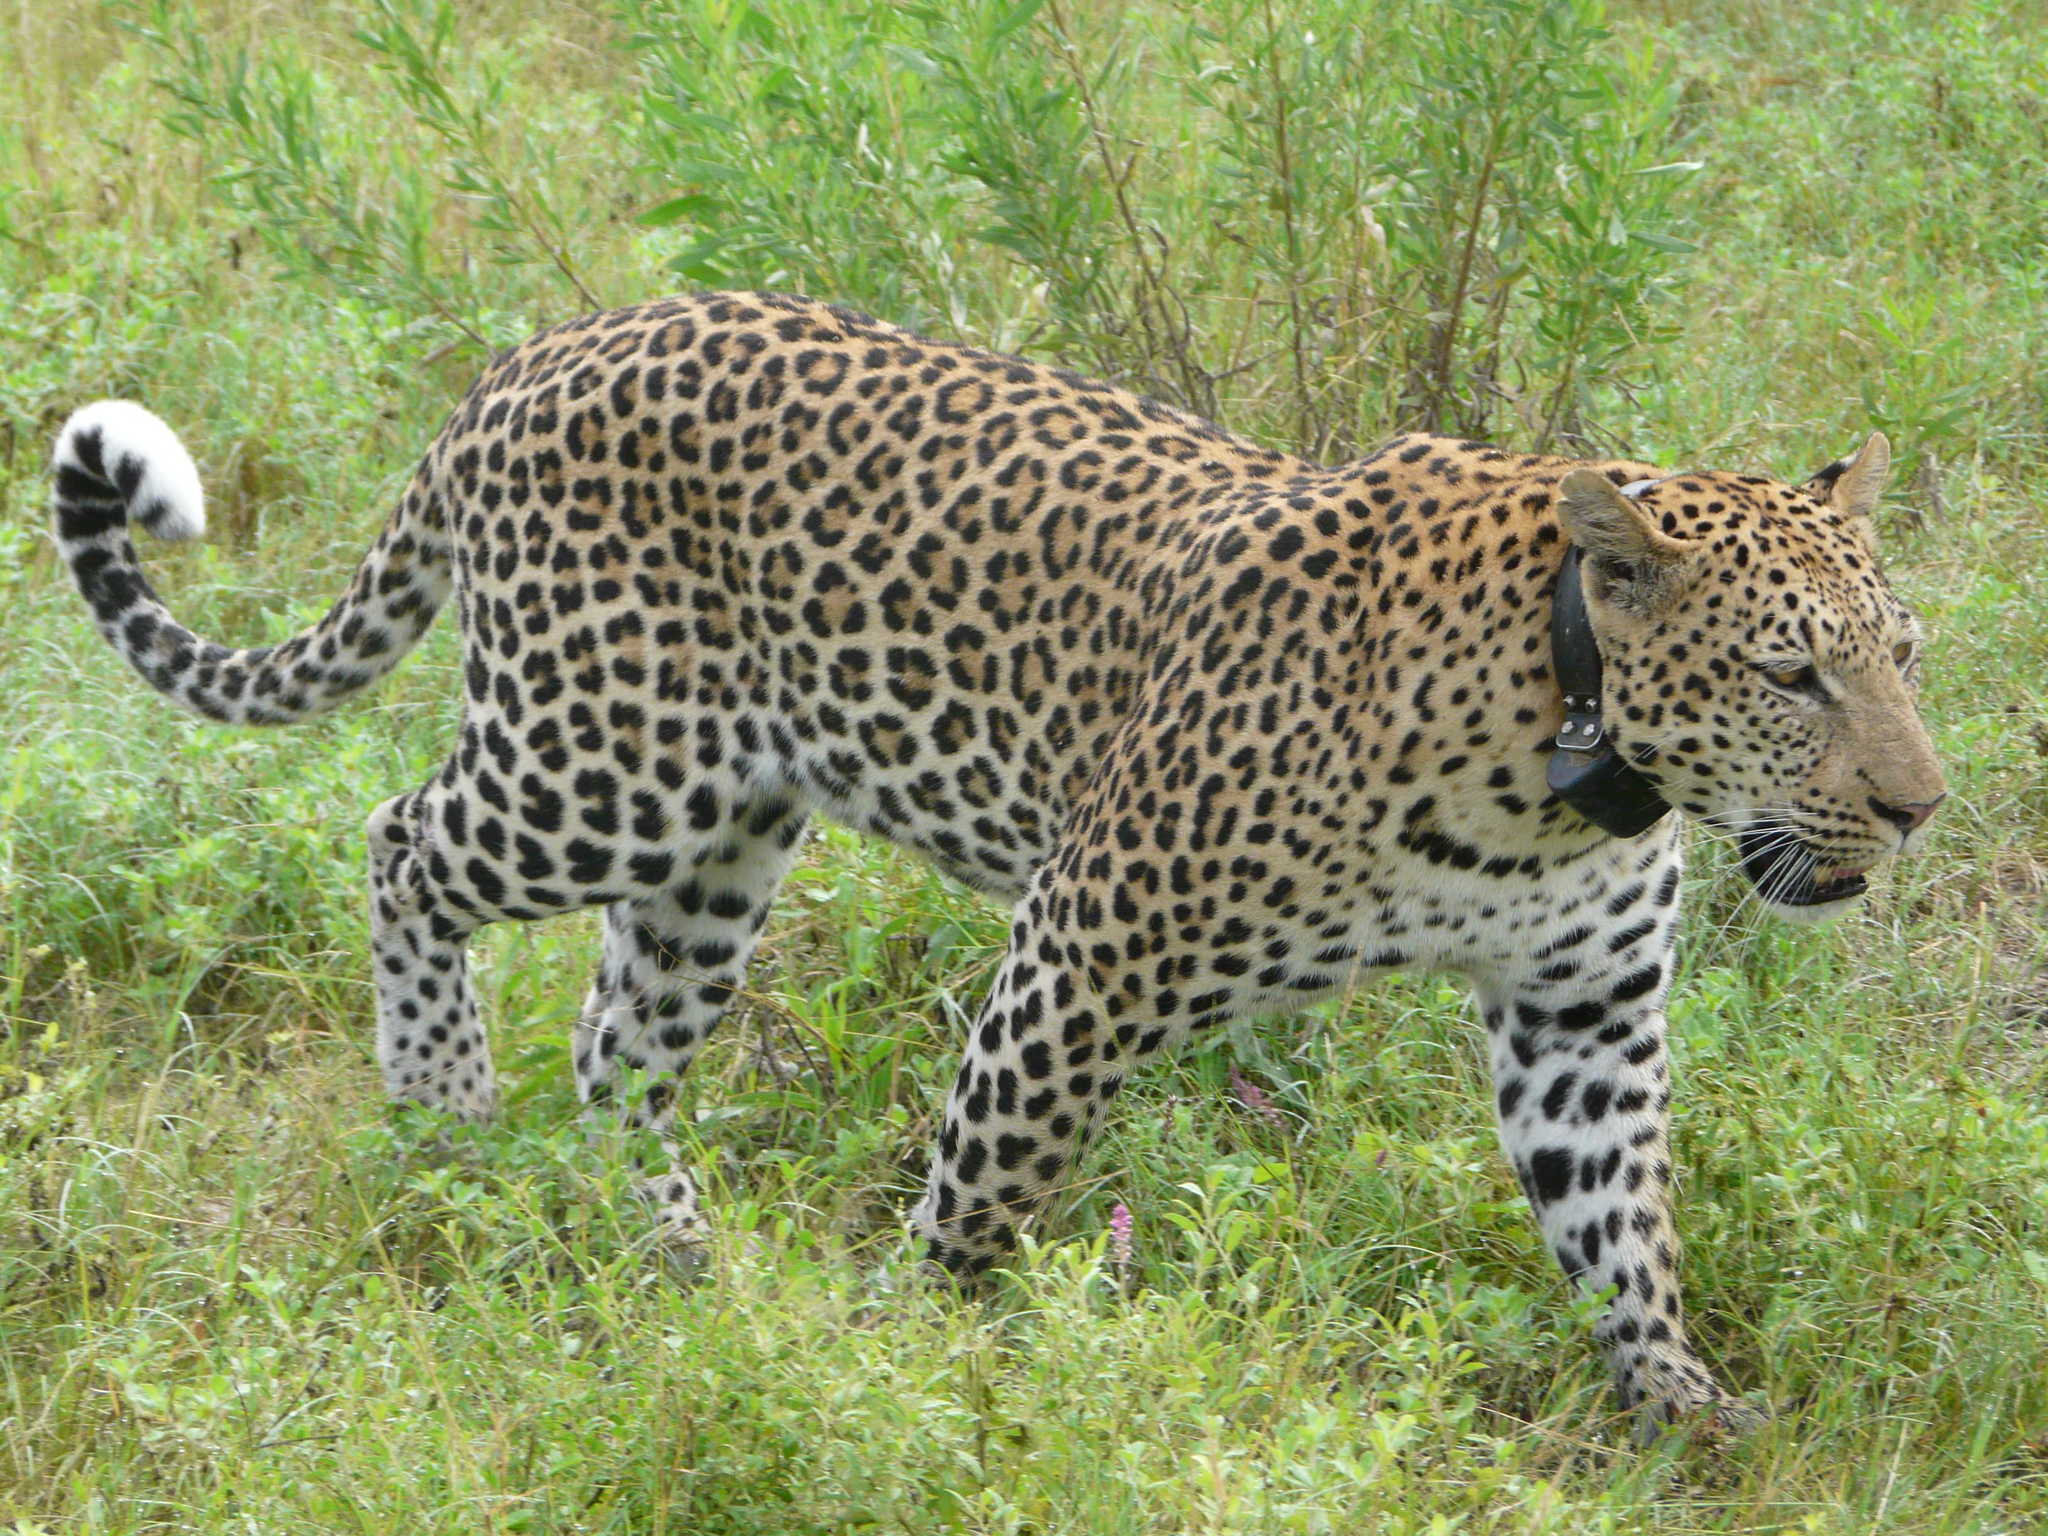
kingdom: Animalia
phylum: Chordata
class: Mammalia
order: Carnivora
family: Felidae
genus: Panthera
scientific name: Panthera pardus
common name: Leopard
